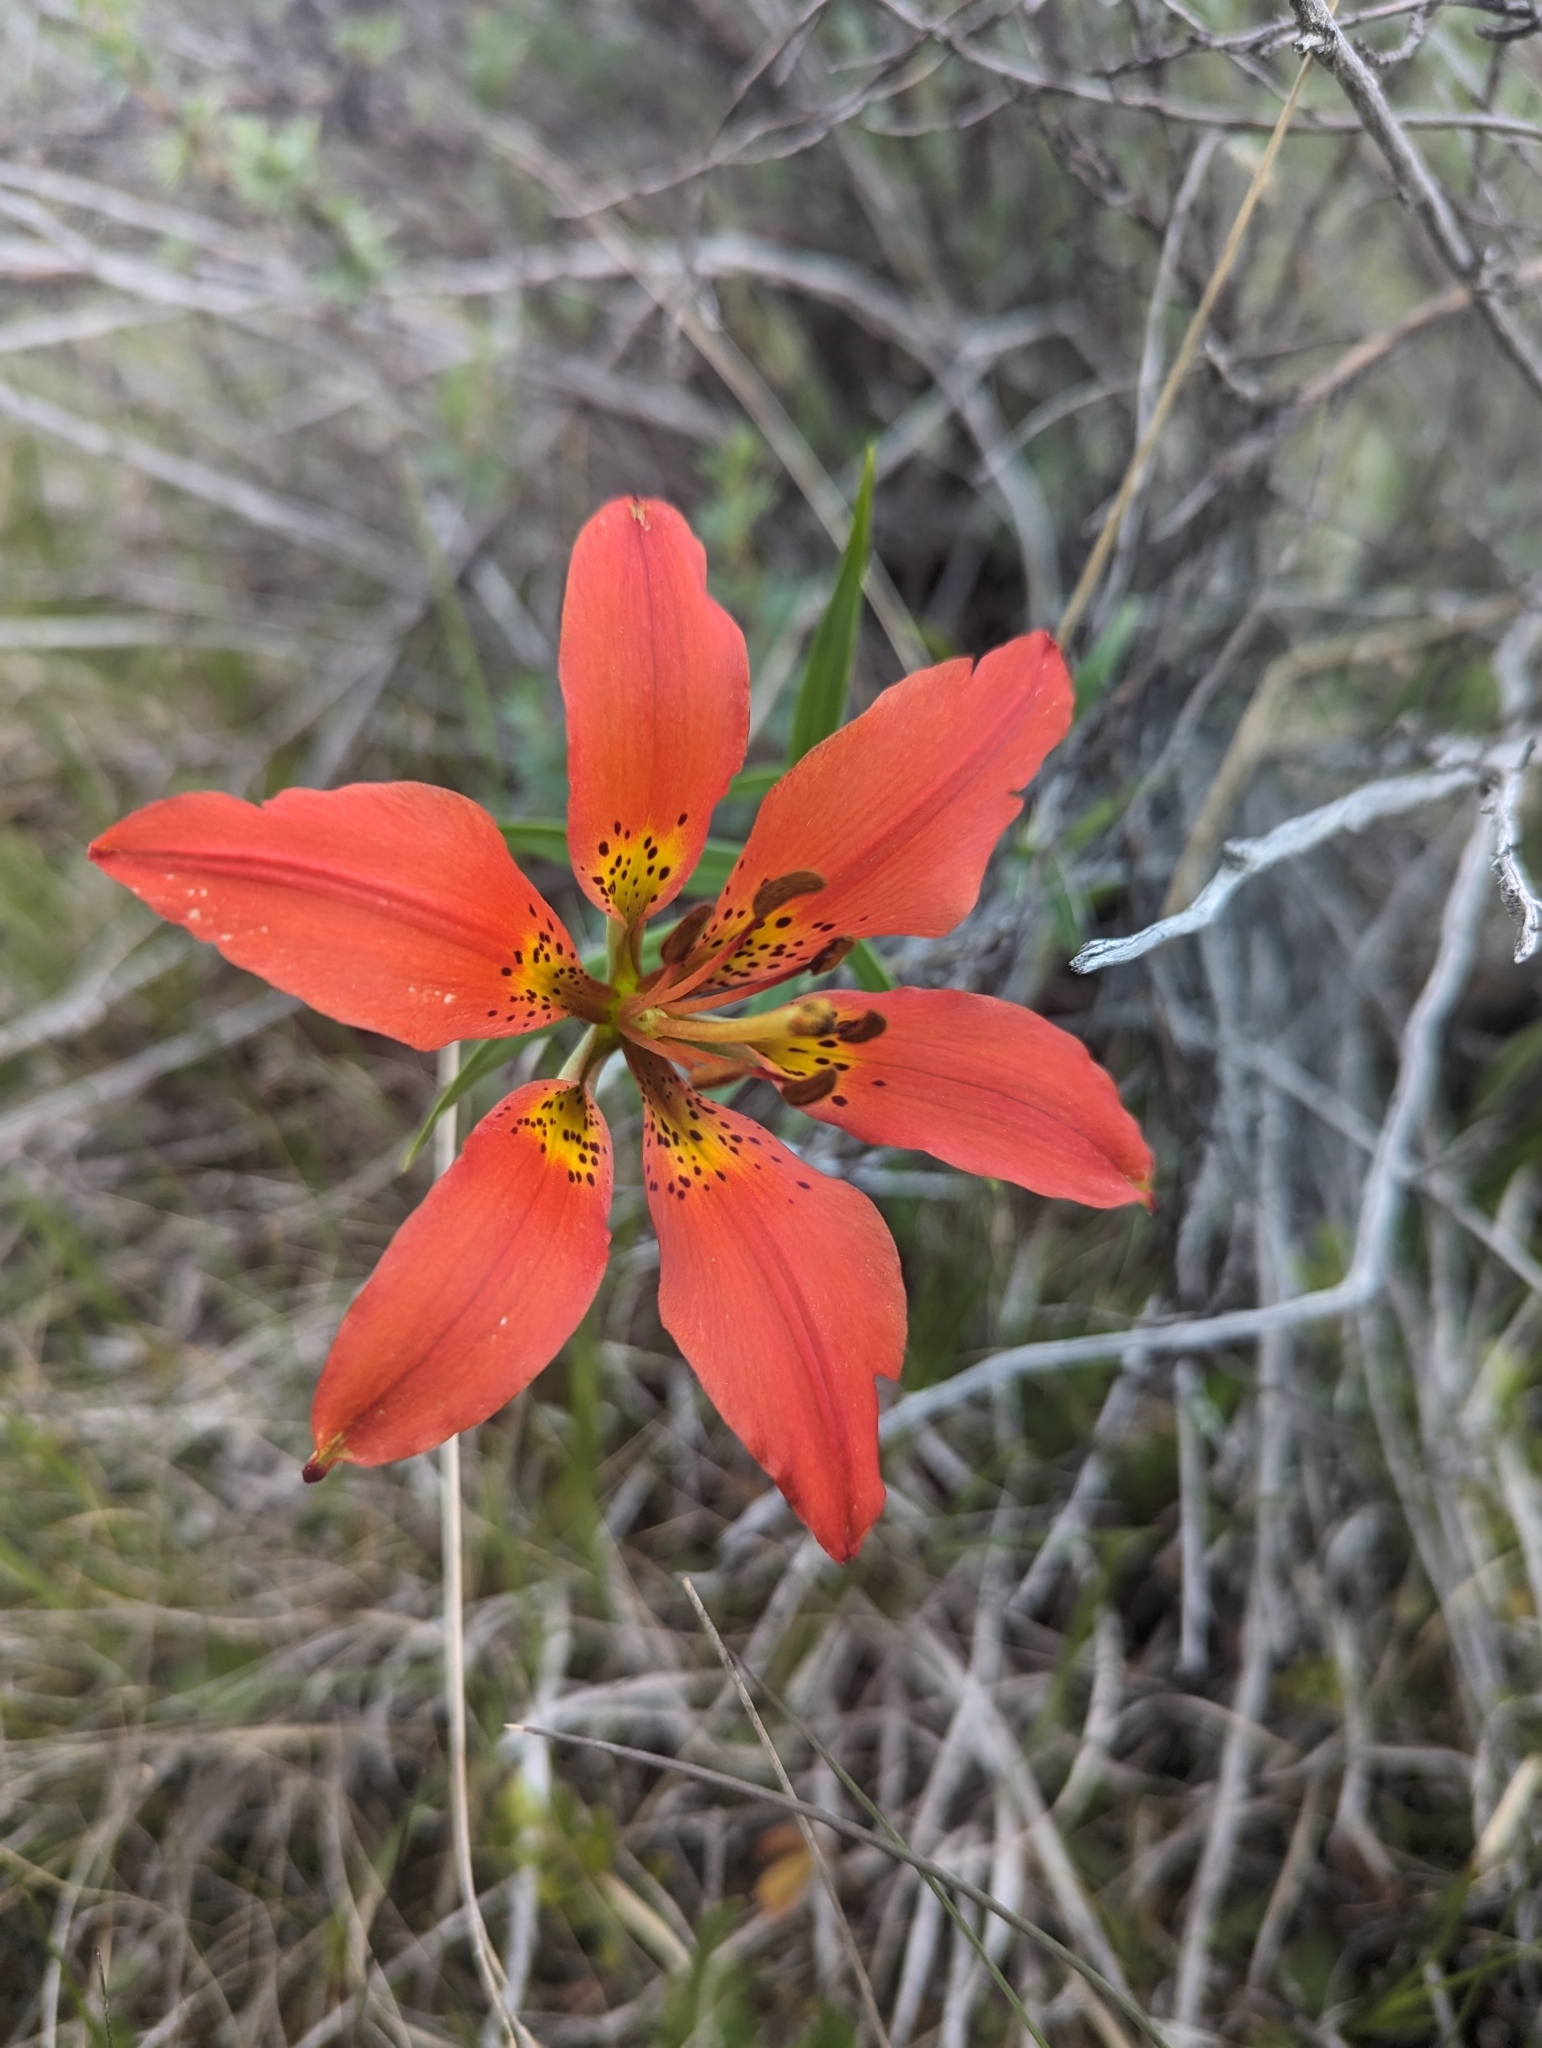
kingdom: Plantae
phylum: Tracheophyta
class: Liliopsida
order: Liliales
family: Liliaceae
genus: Lilium
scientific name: Lilium philadelphicum
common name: Red lily
